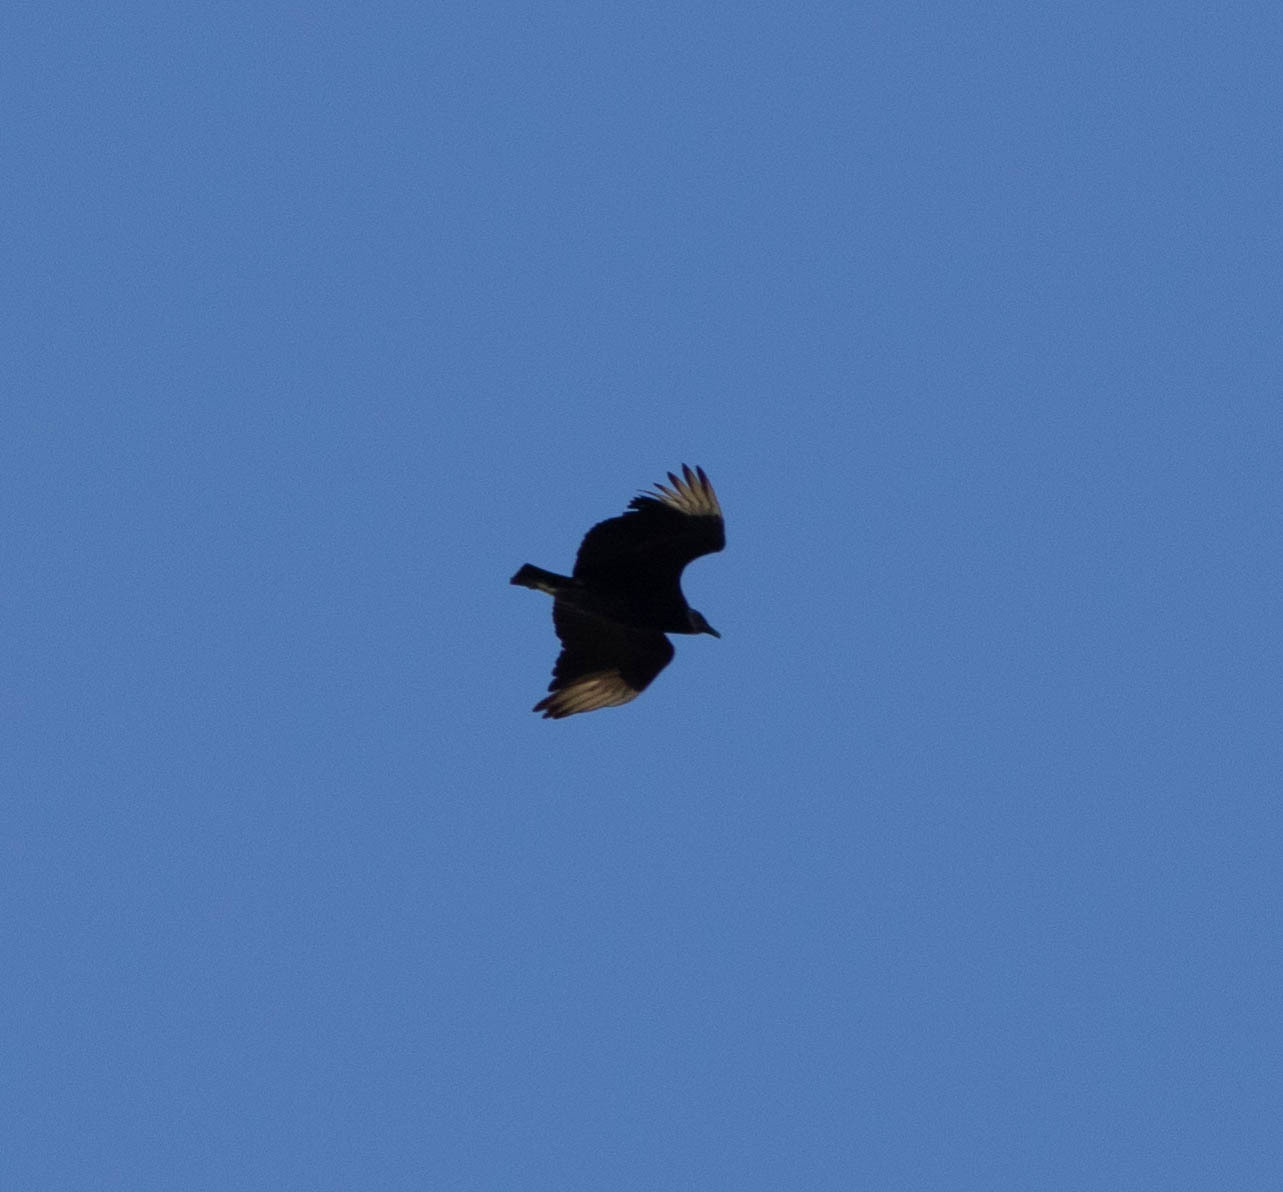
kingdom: Animalia
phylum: Chordata
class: Aves
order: Accipitriformes
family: Cathartidae
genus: Coragyps
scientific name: Coragyps atratus
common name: Black vulture
